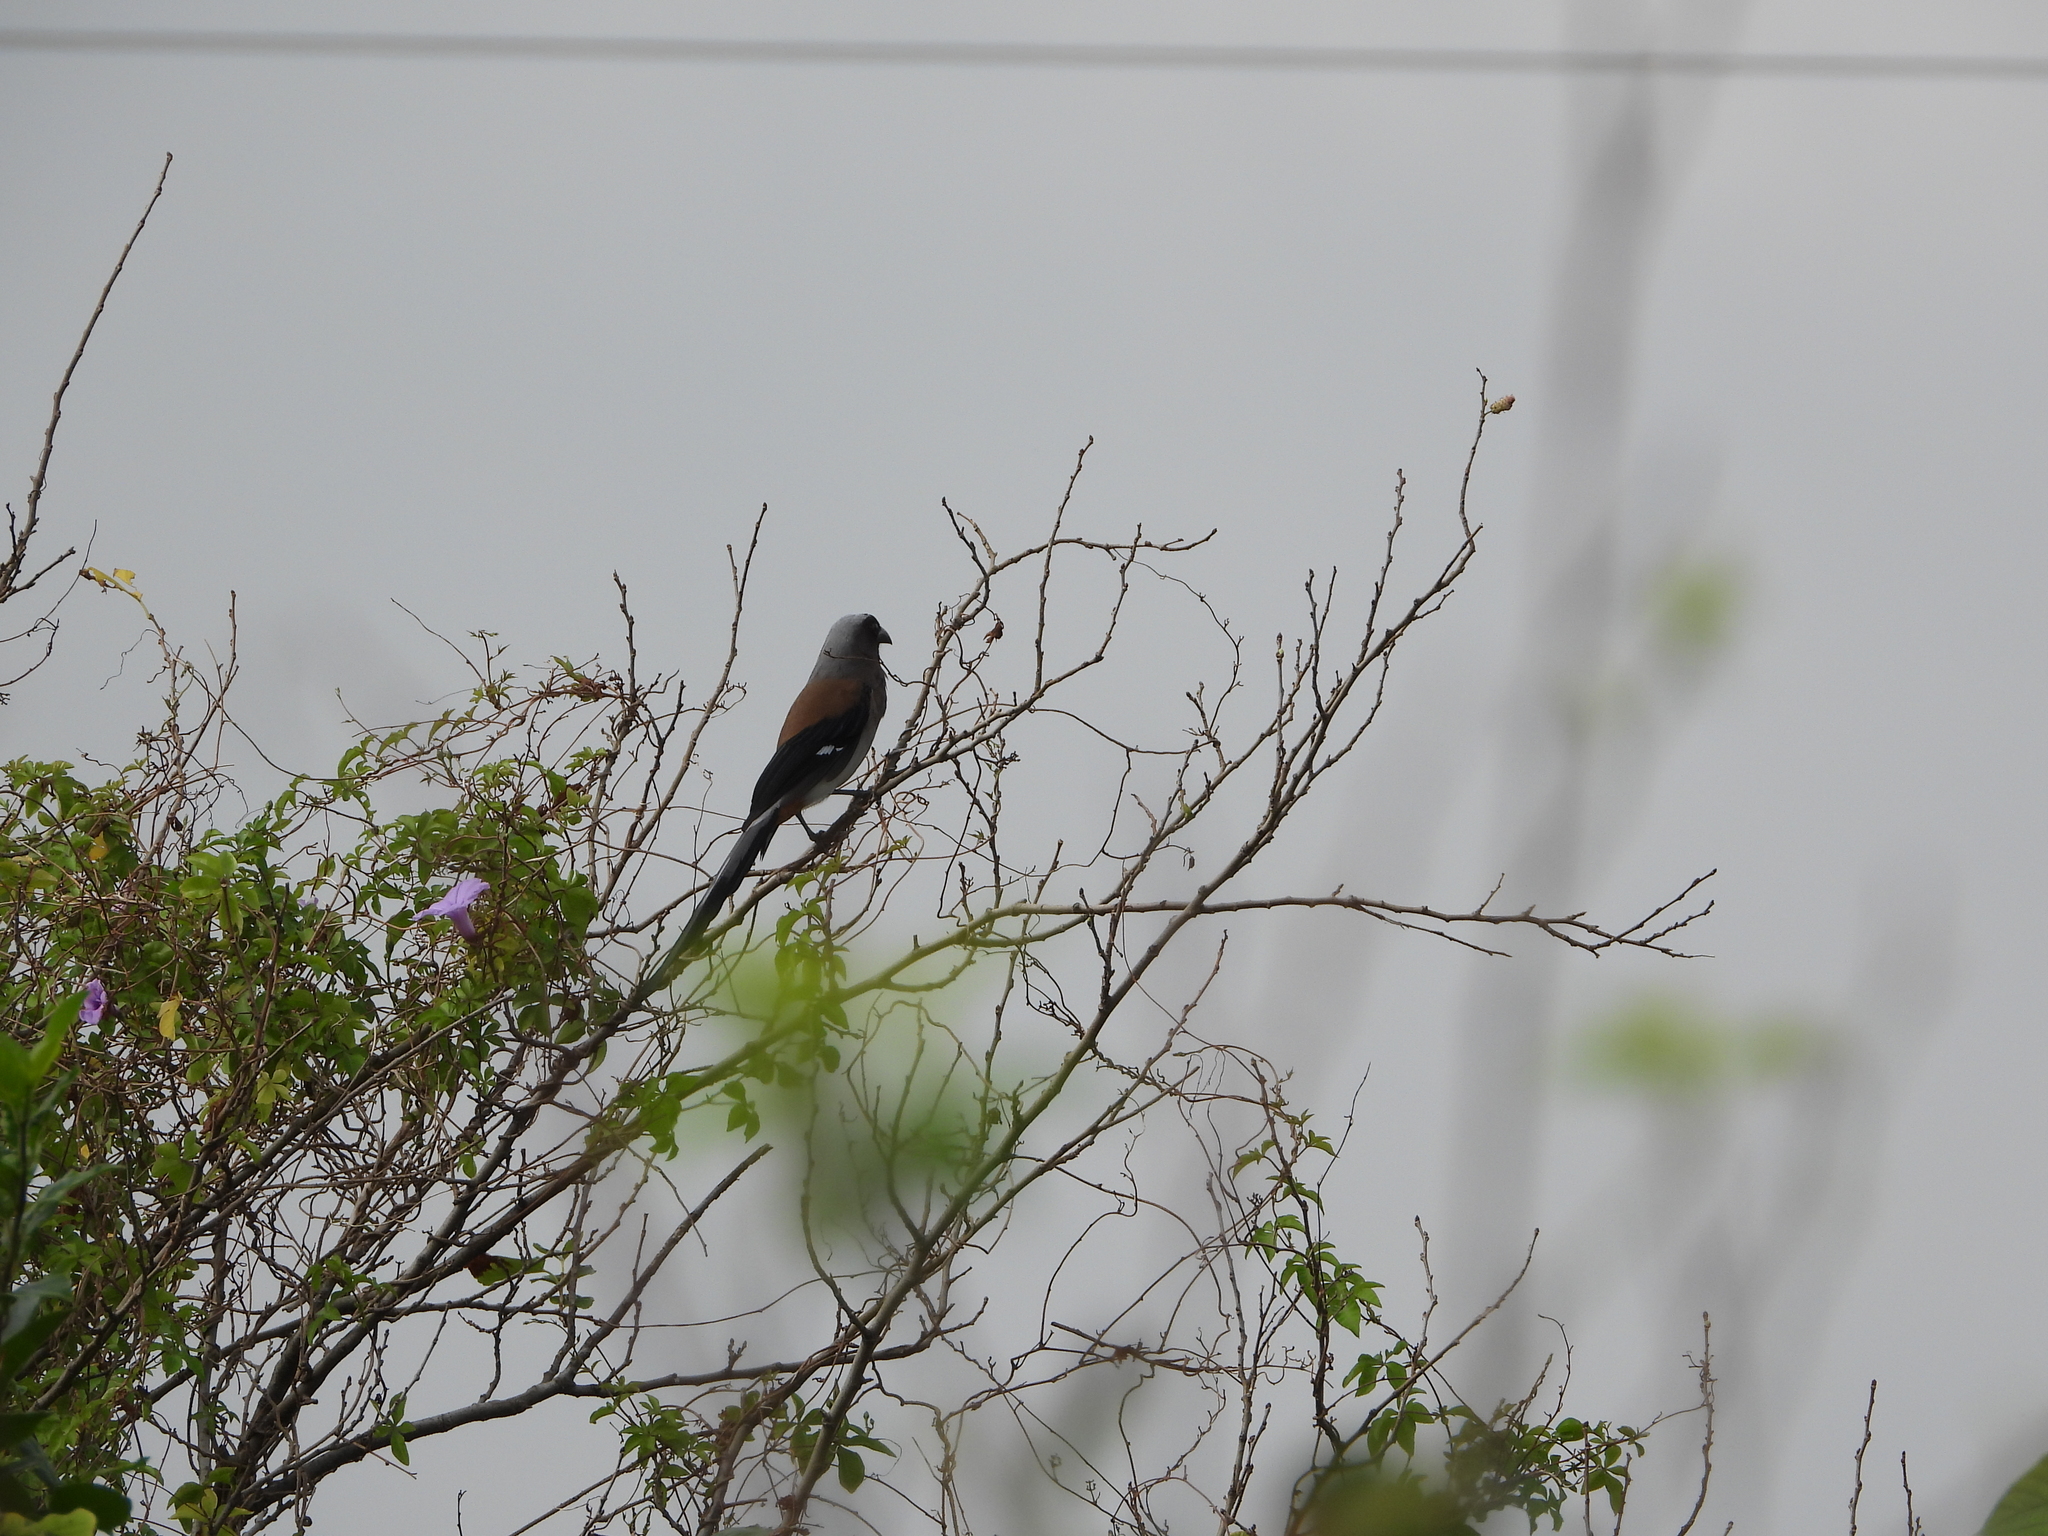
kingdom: Animalia
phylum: Chordata
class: Aves
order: Passeriformes
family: Corvidae
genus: Dendrocitta
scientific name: Dendrocitta formosae
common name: Grey treepie
